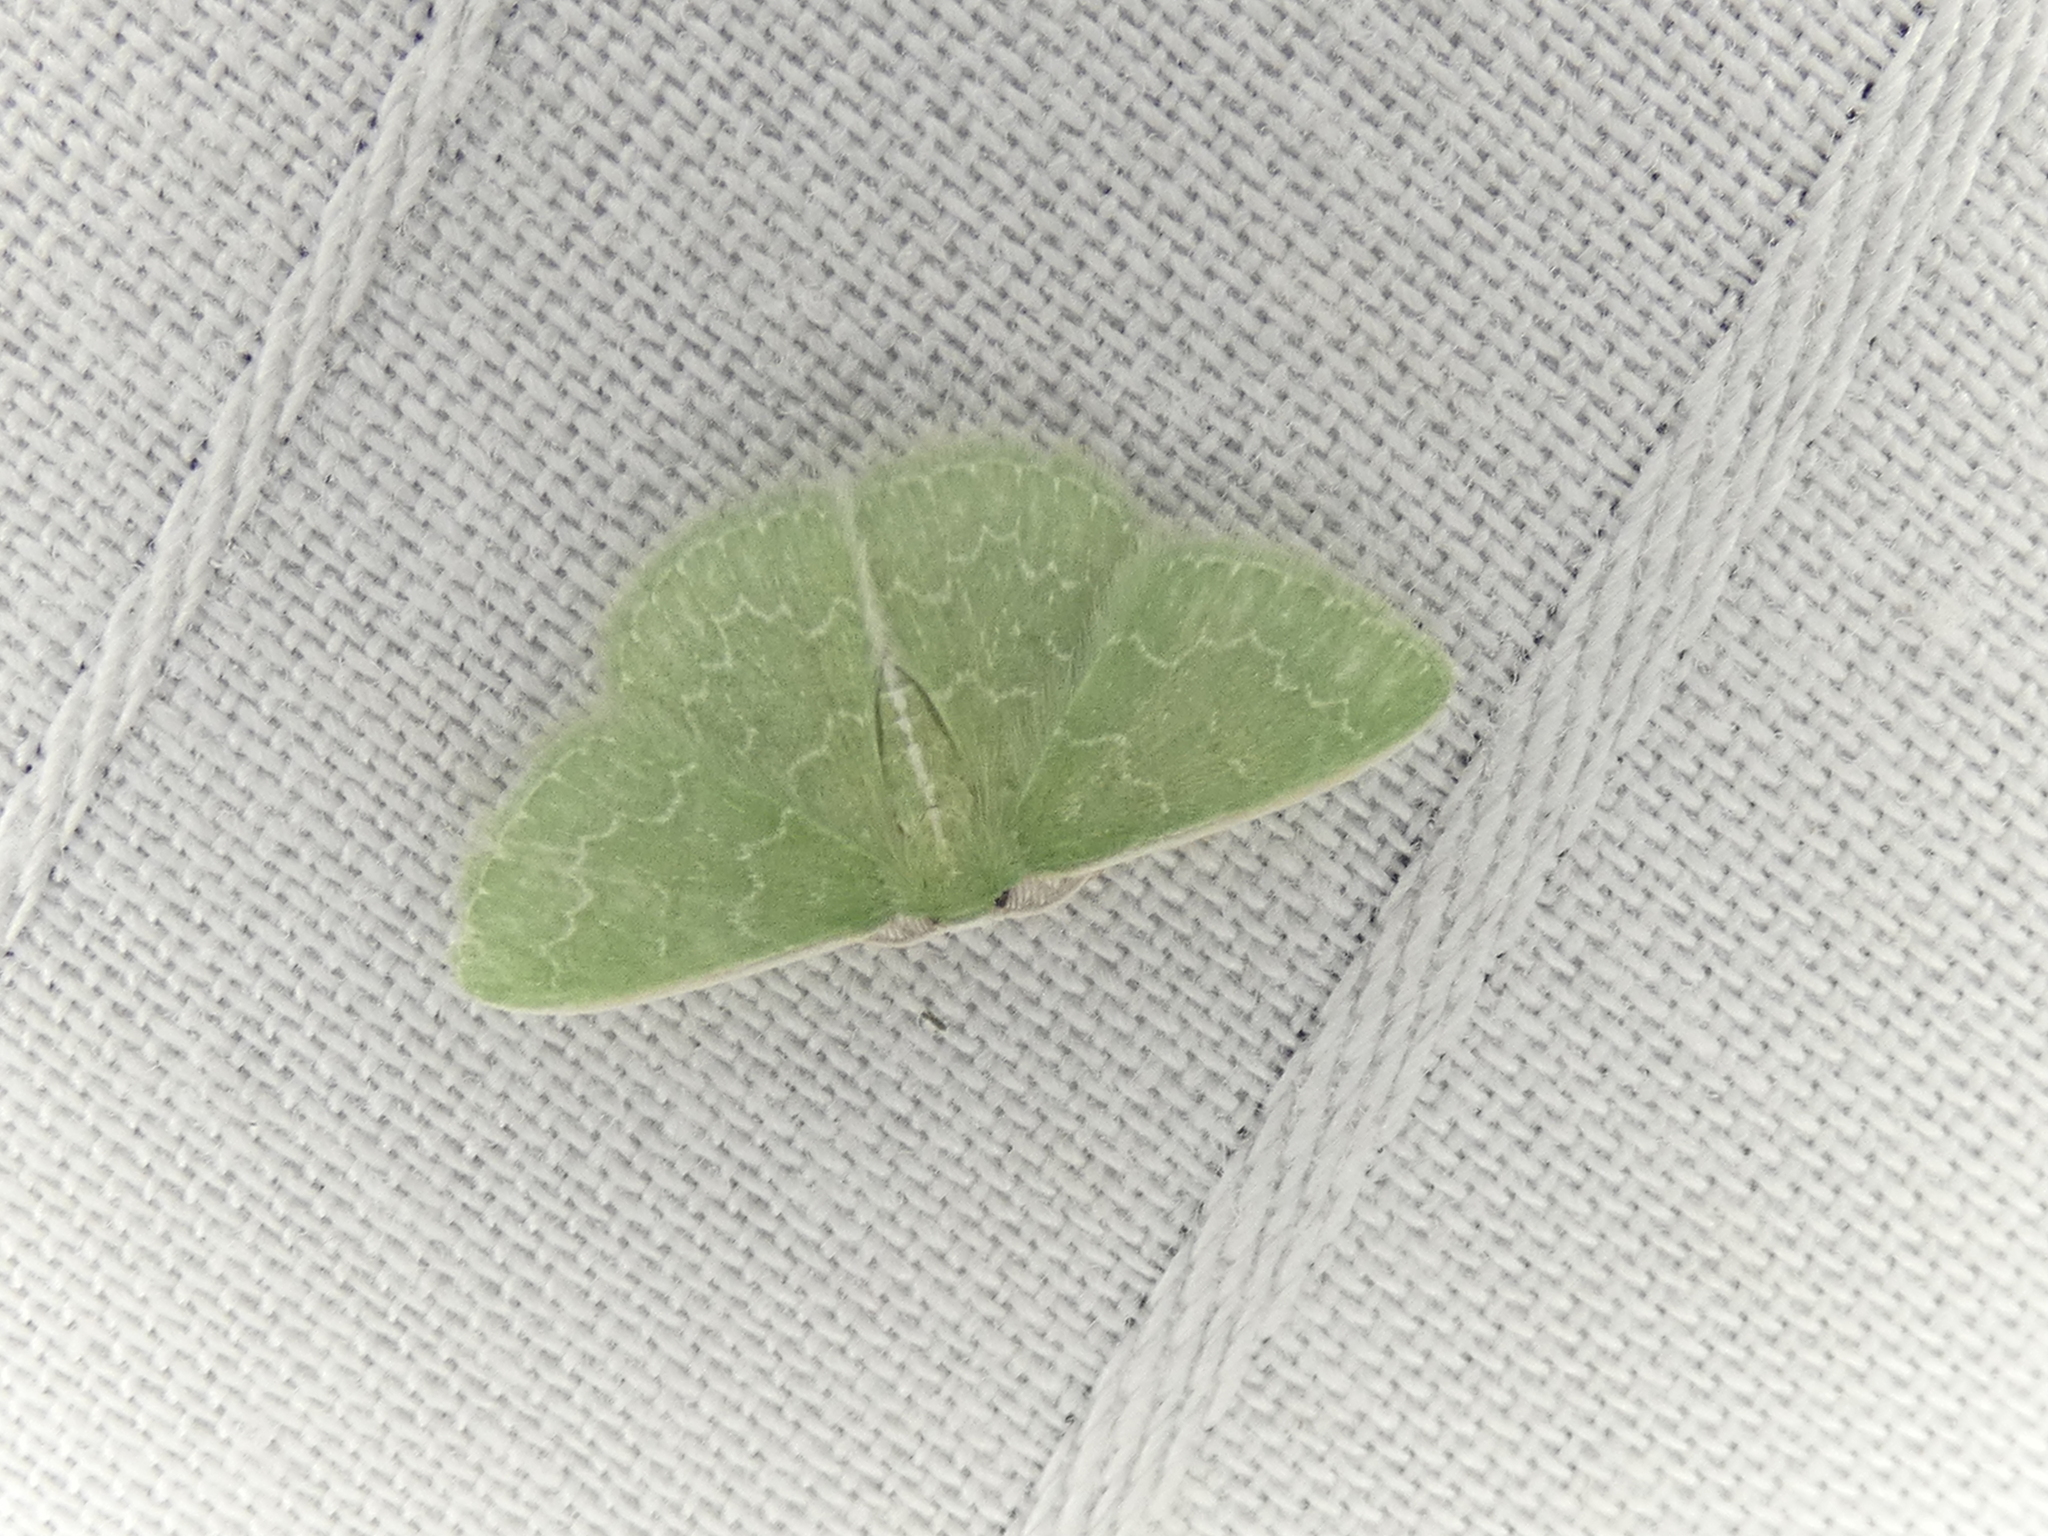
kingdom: Animalia
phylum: Arthropoda
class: Insecta
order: Lepidoptera
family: Geometridae
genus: Synchlora
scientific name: Synchlora frondaria
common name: Southern emerald
